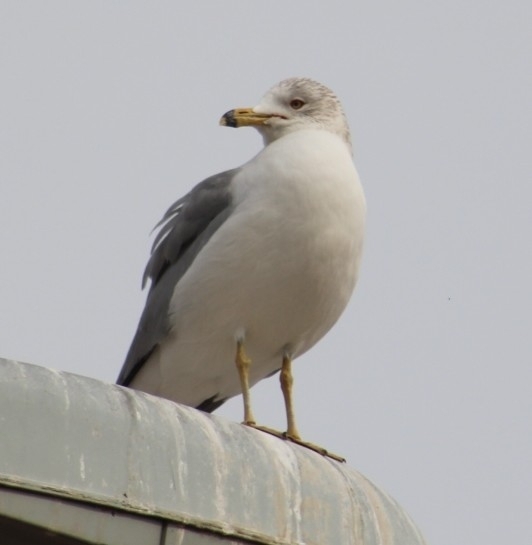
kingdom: Animalia
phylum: Chordata
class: Aves
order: Charadriiformes
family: Laridae
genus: Larus
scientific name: Larus delawarensis
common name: Ring-billed gull
